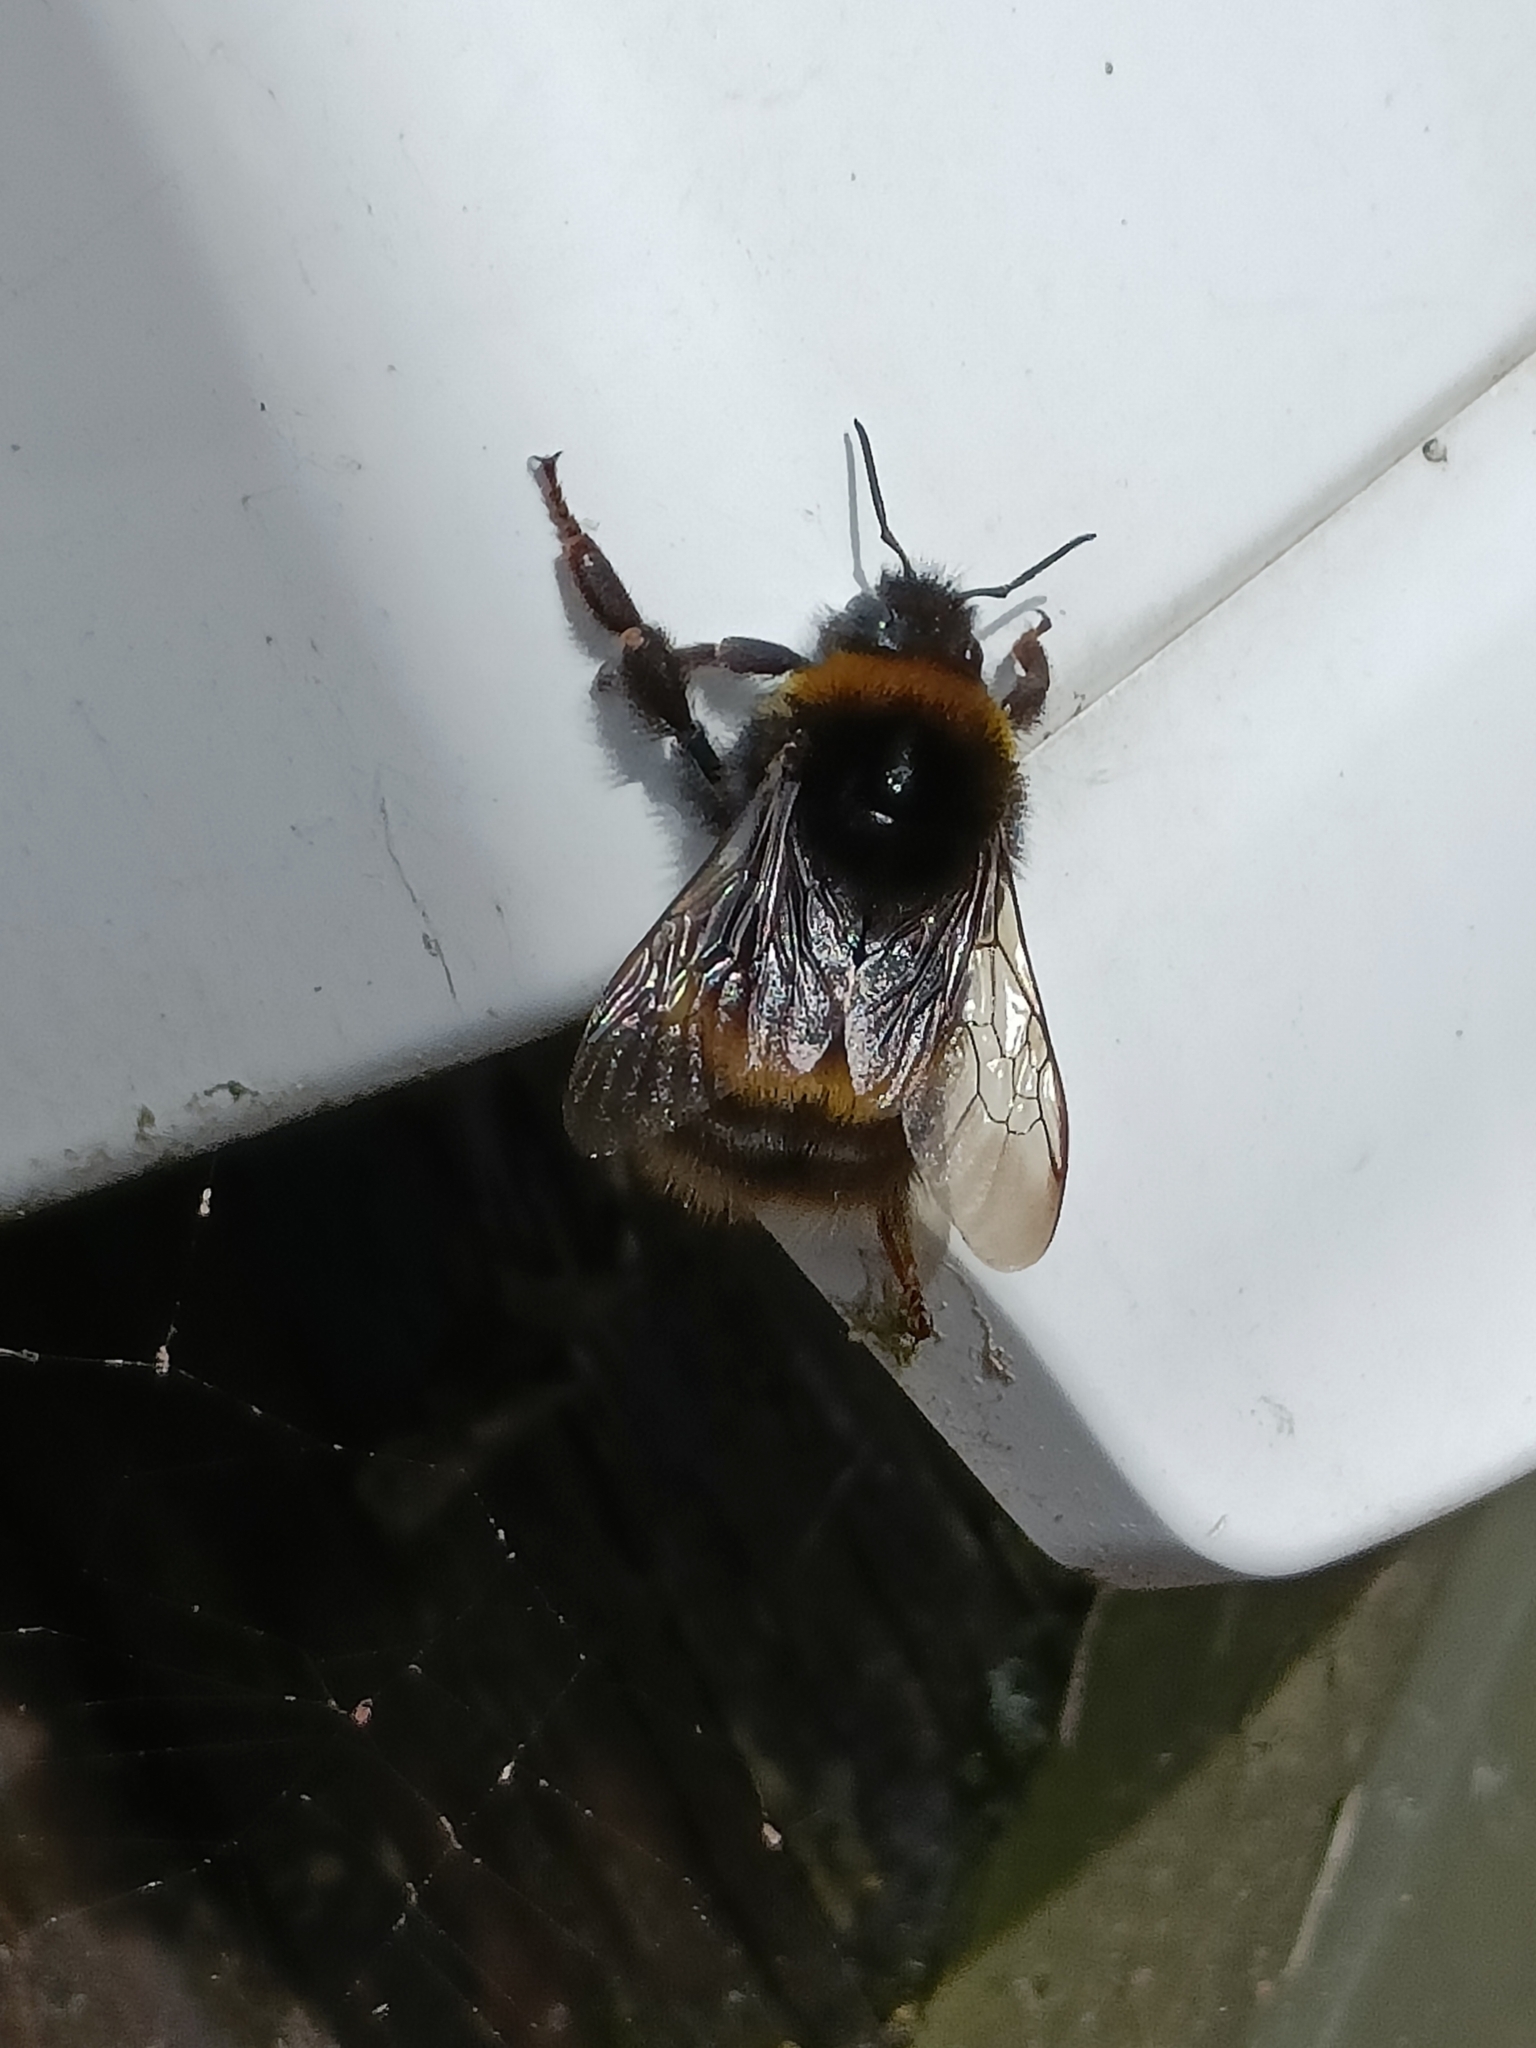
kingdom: Animalia
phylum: Arthropoda
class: Insecta
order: Hymenoptera
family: Apidae
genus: Bombus
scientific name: Bombus terrestris
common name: Buff-tailed bumblebee
